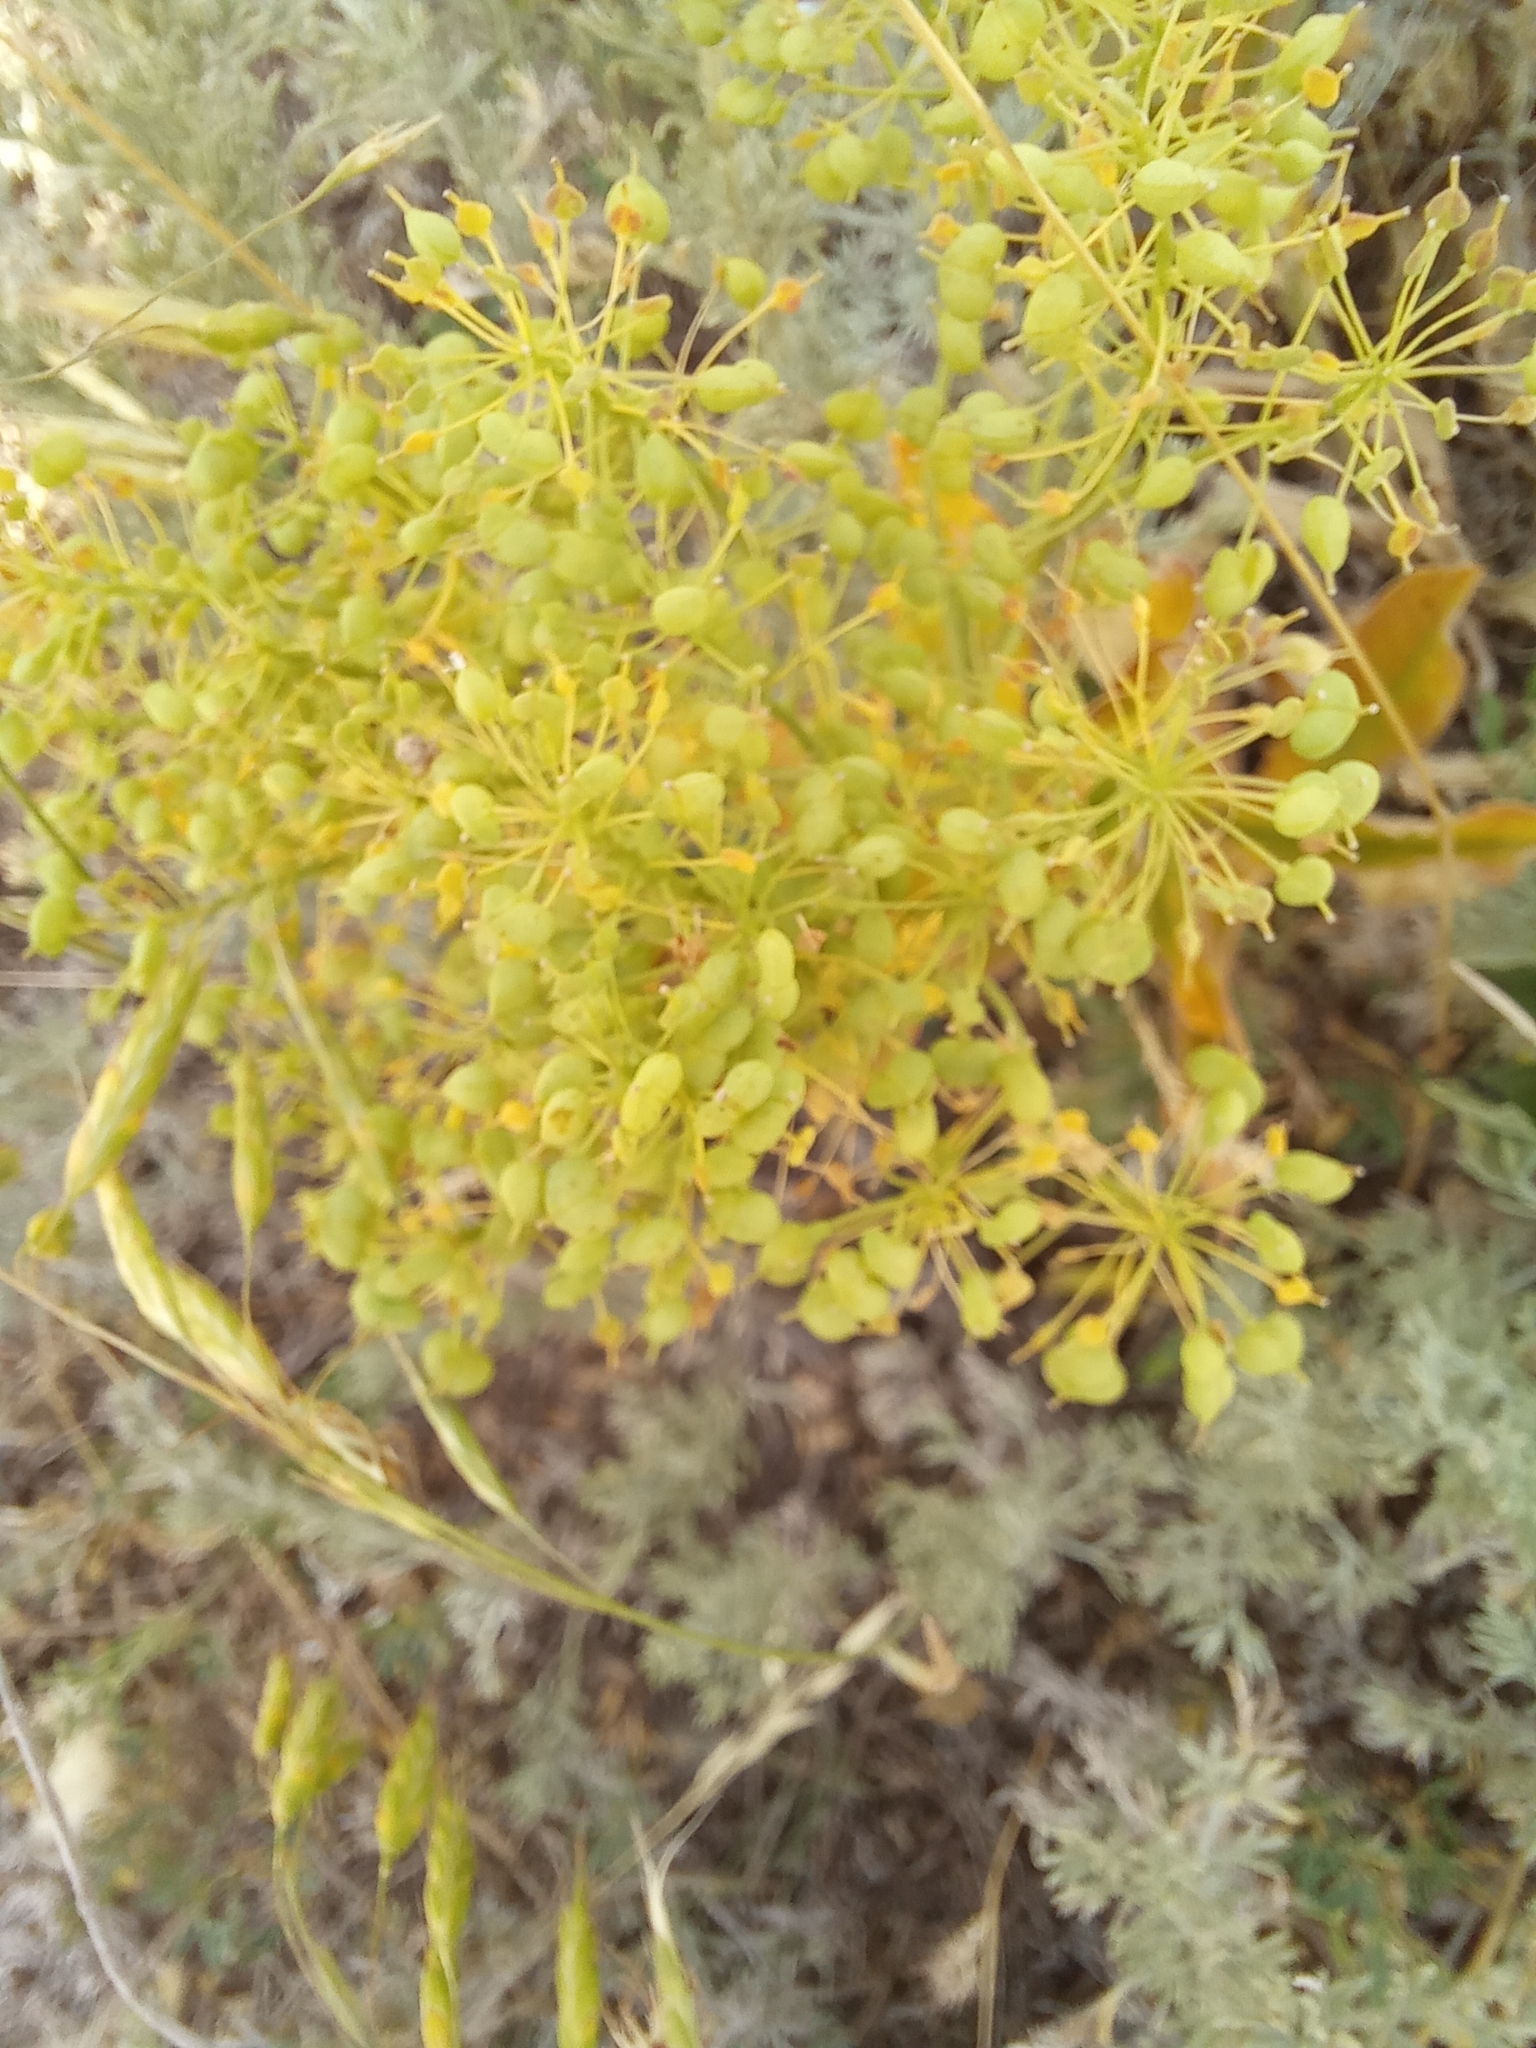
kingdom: Plantae
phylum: Tracheophyta
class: Magnoliopsida
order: Brassicales
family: Brassicaceae
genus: Lepidium
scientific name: Lepidium draba
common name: Hoary cress
